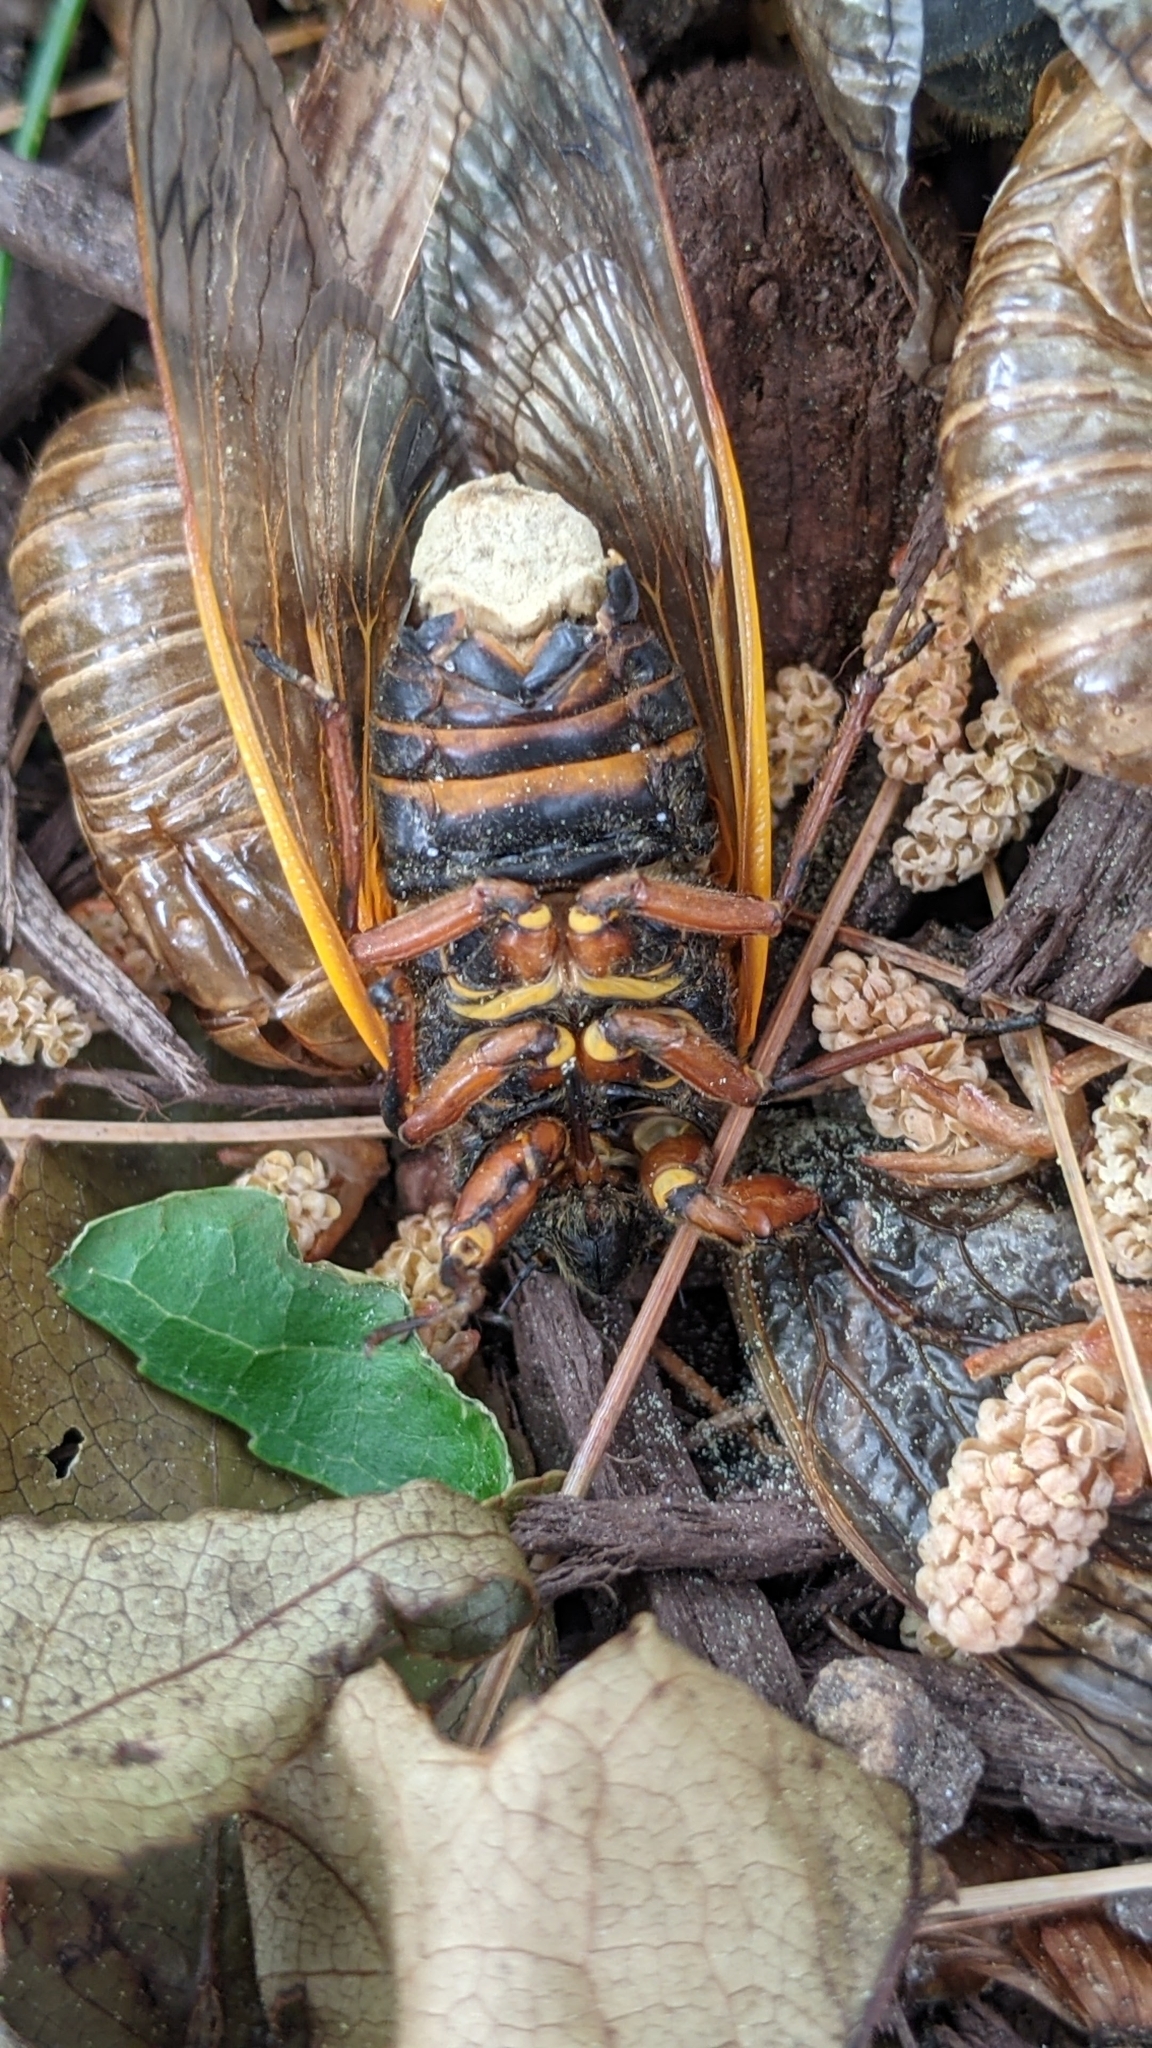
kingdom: Fungi
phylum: Entomophthoromycota
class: Entomophthoromycetes
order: Entomophthorales
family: Entomophthoraceae
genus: Massospora
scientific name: Massospora cicadina
